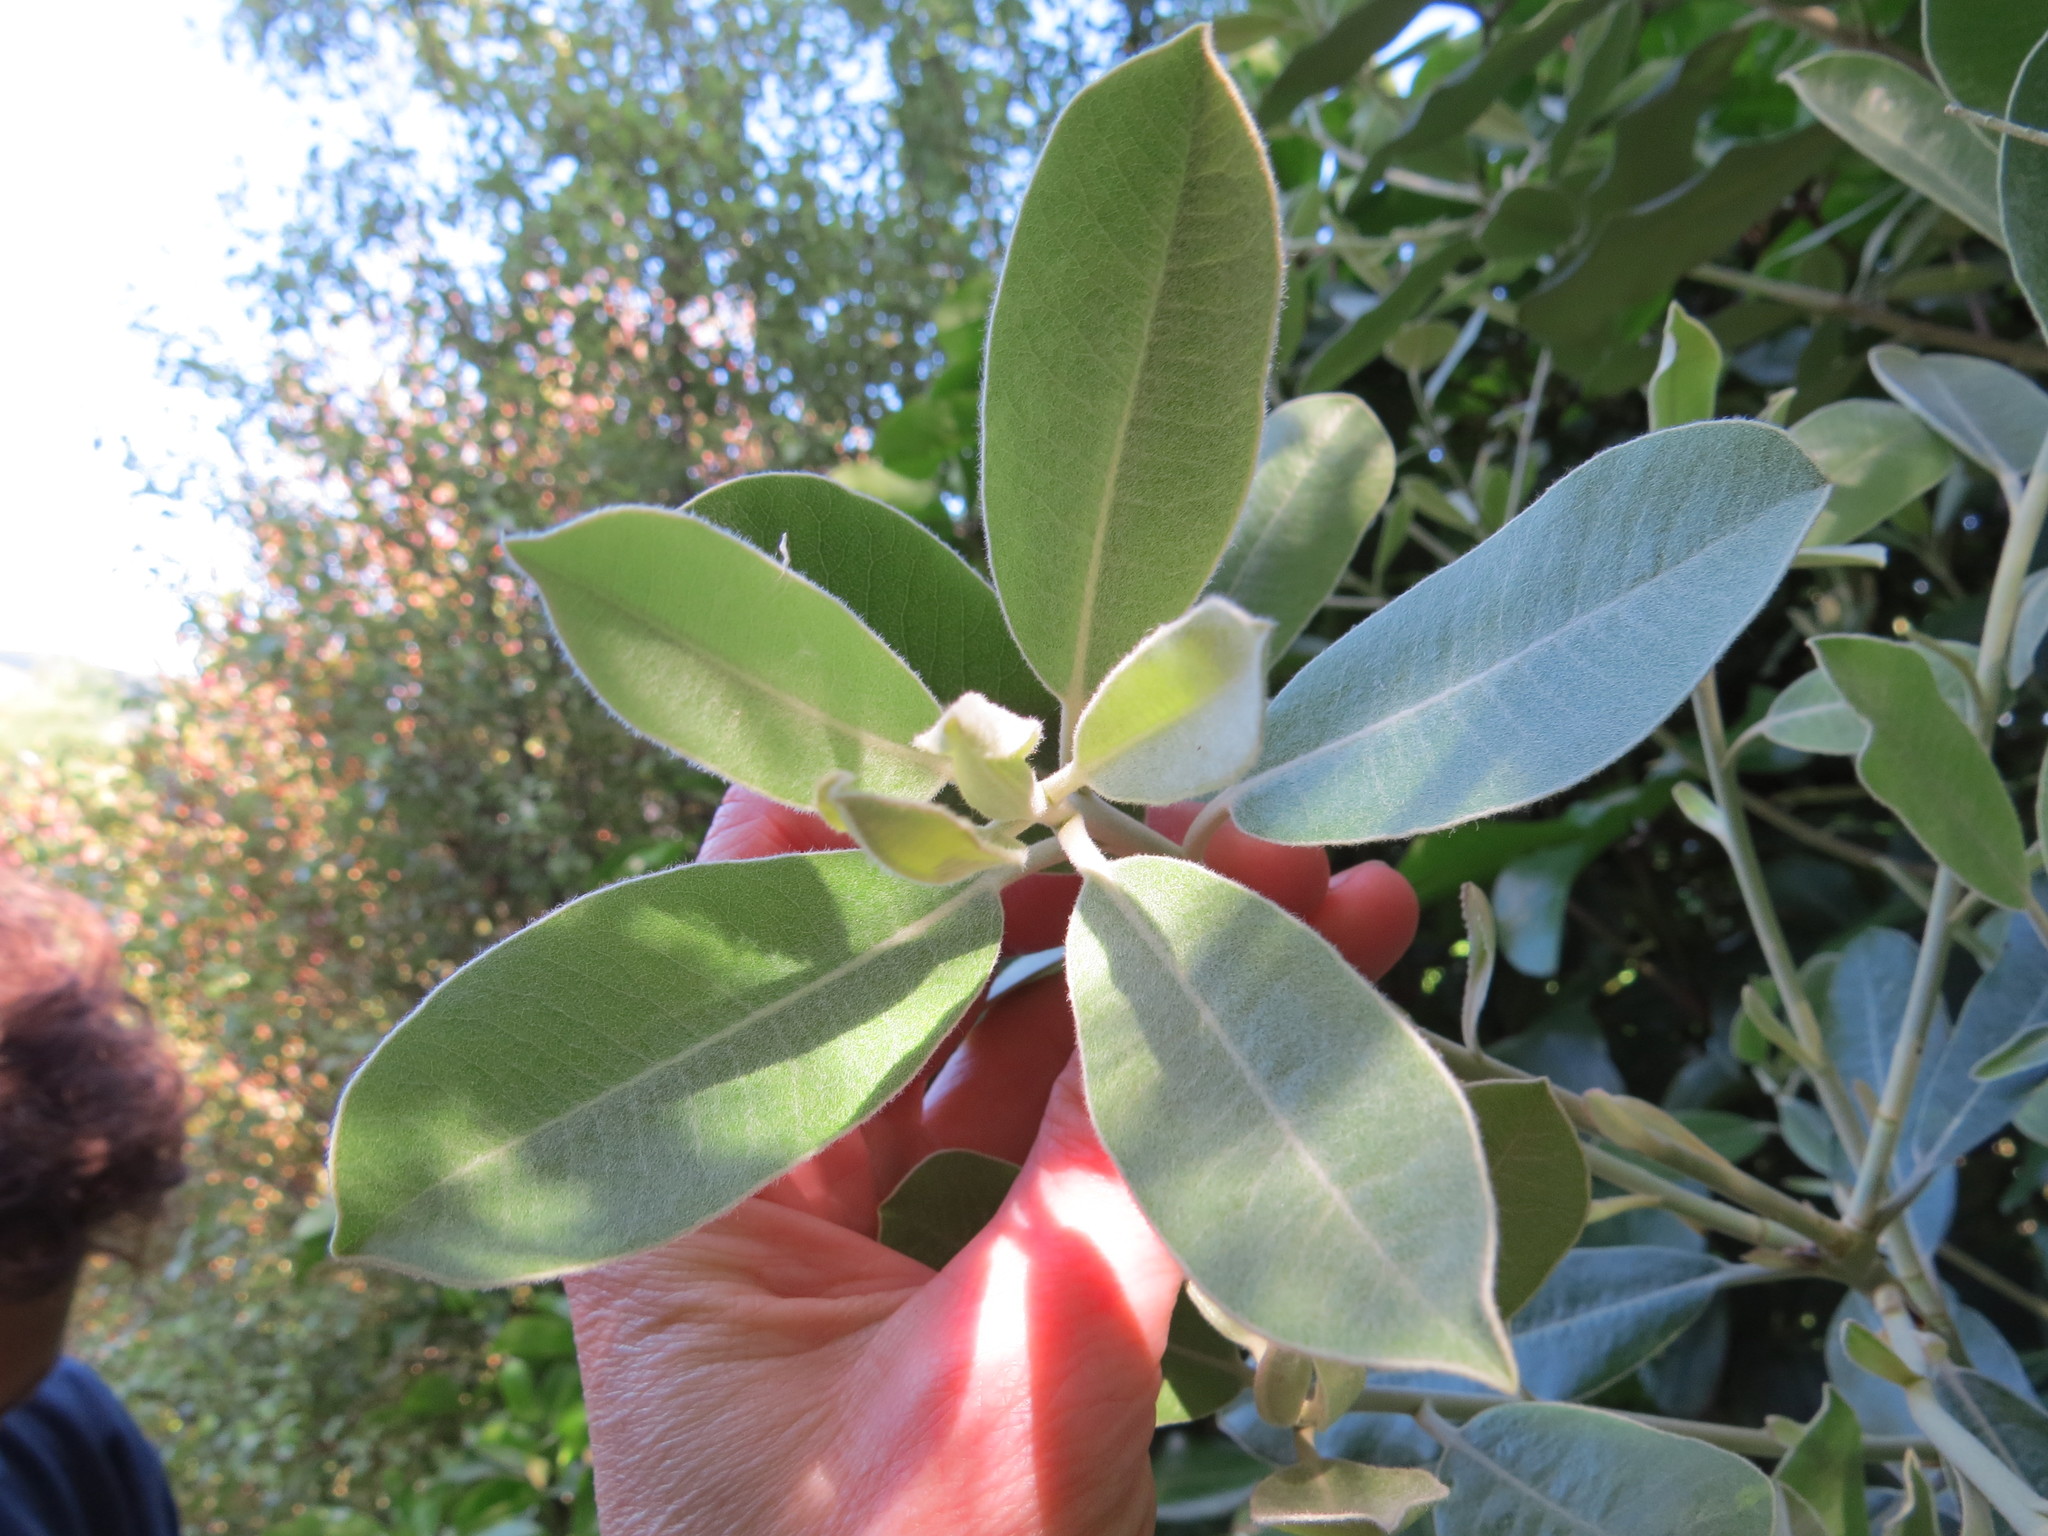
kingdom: Plantae
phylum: Tracheophyta
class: Magnoliopsida
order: Apiales
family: Pittosporaceae
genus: Pittosporum
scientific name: Pittosporum ralphii
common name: Ralph's desertwillow
